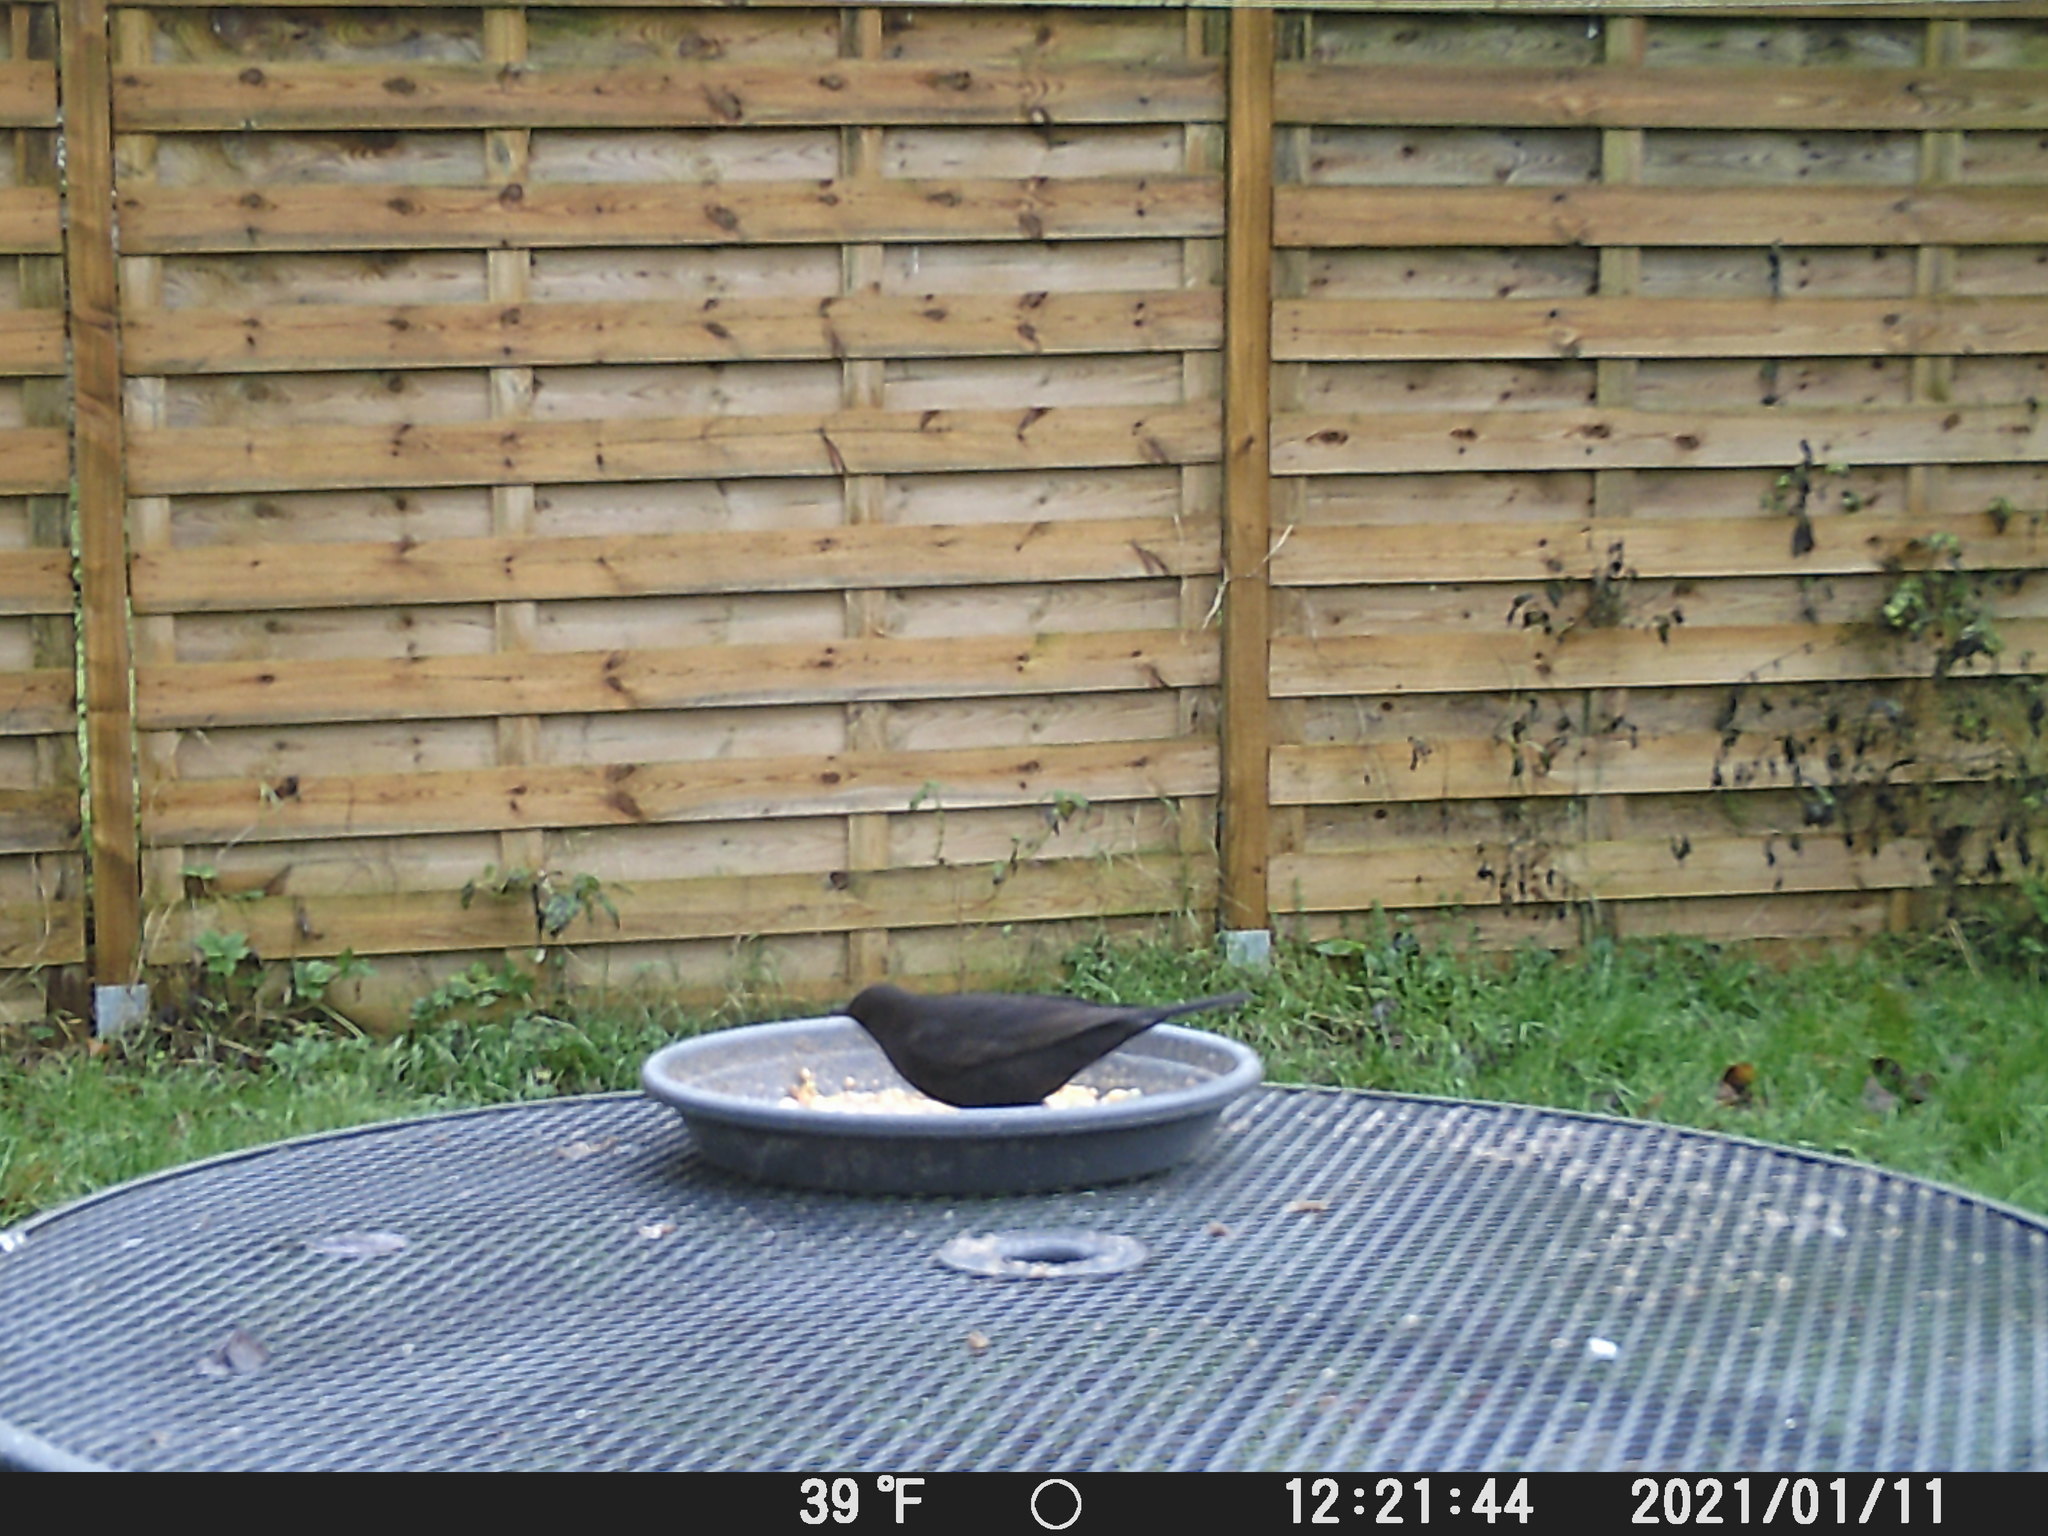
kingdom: Animalia
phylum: Chordata
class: Aves
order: Passeriformes
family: Turdidae
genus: Turdus
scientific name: Turdus merula
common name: Common blackbird
